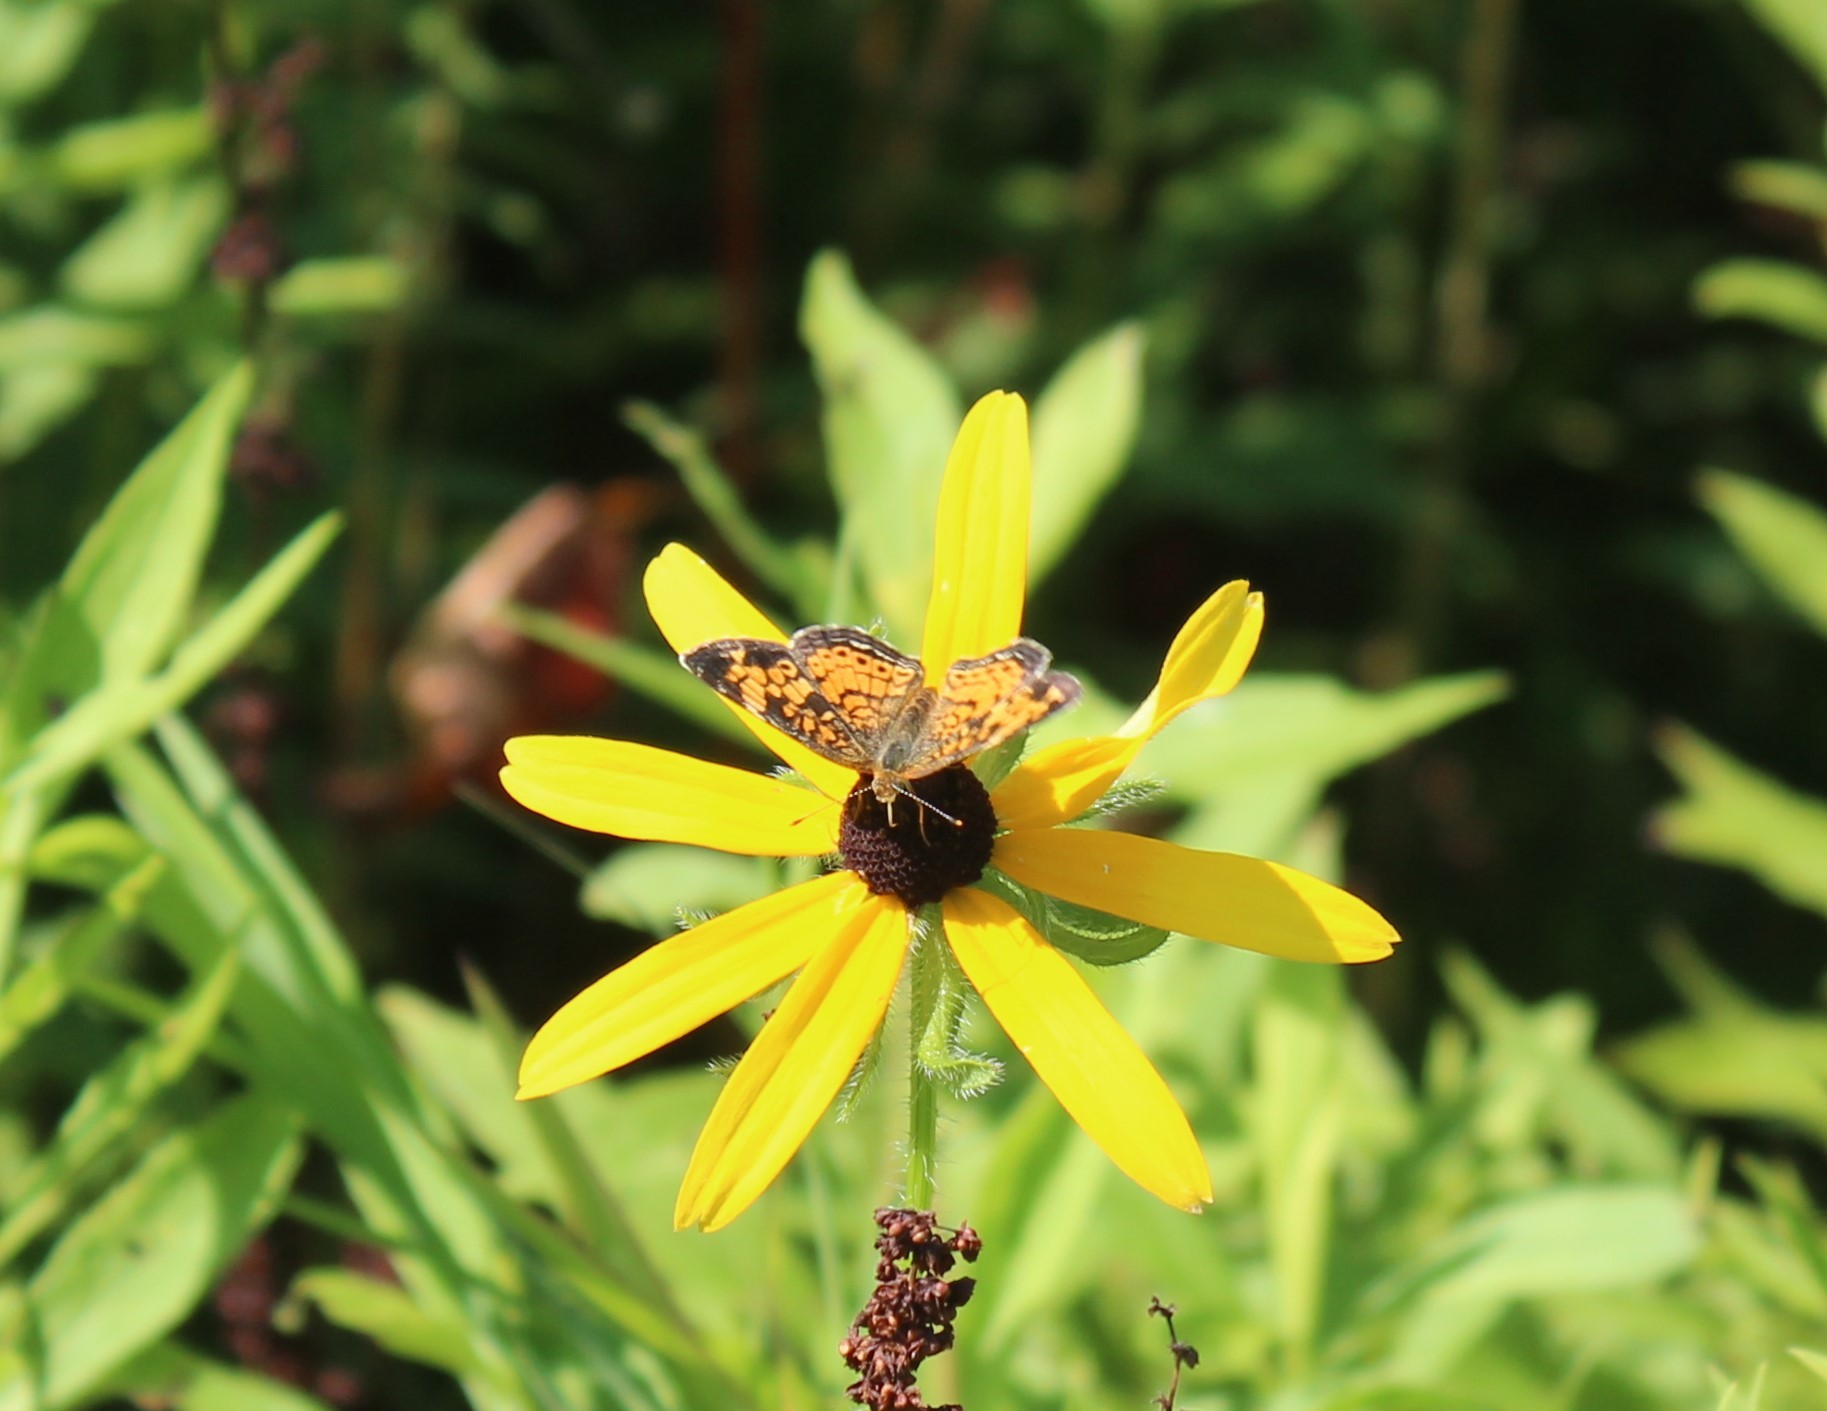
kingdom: Animalia
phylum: Arthropoda
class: Insecta
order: Lepidoptera
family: Nymphalidae
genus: Phyciodes
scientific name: Phyciodes tharos
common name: Pearl crescent
